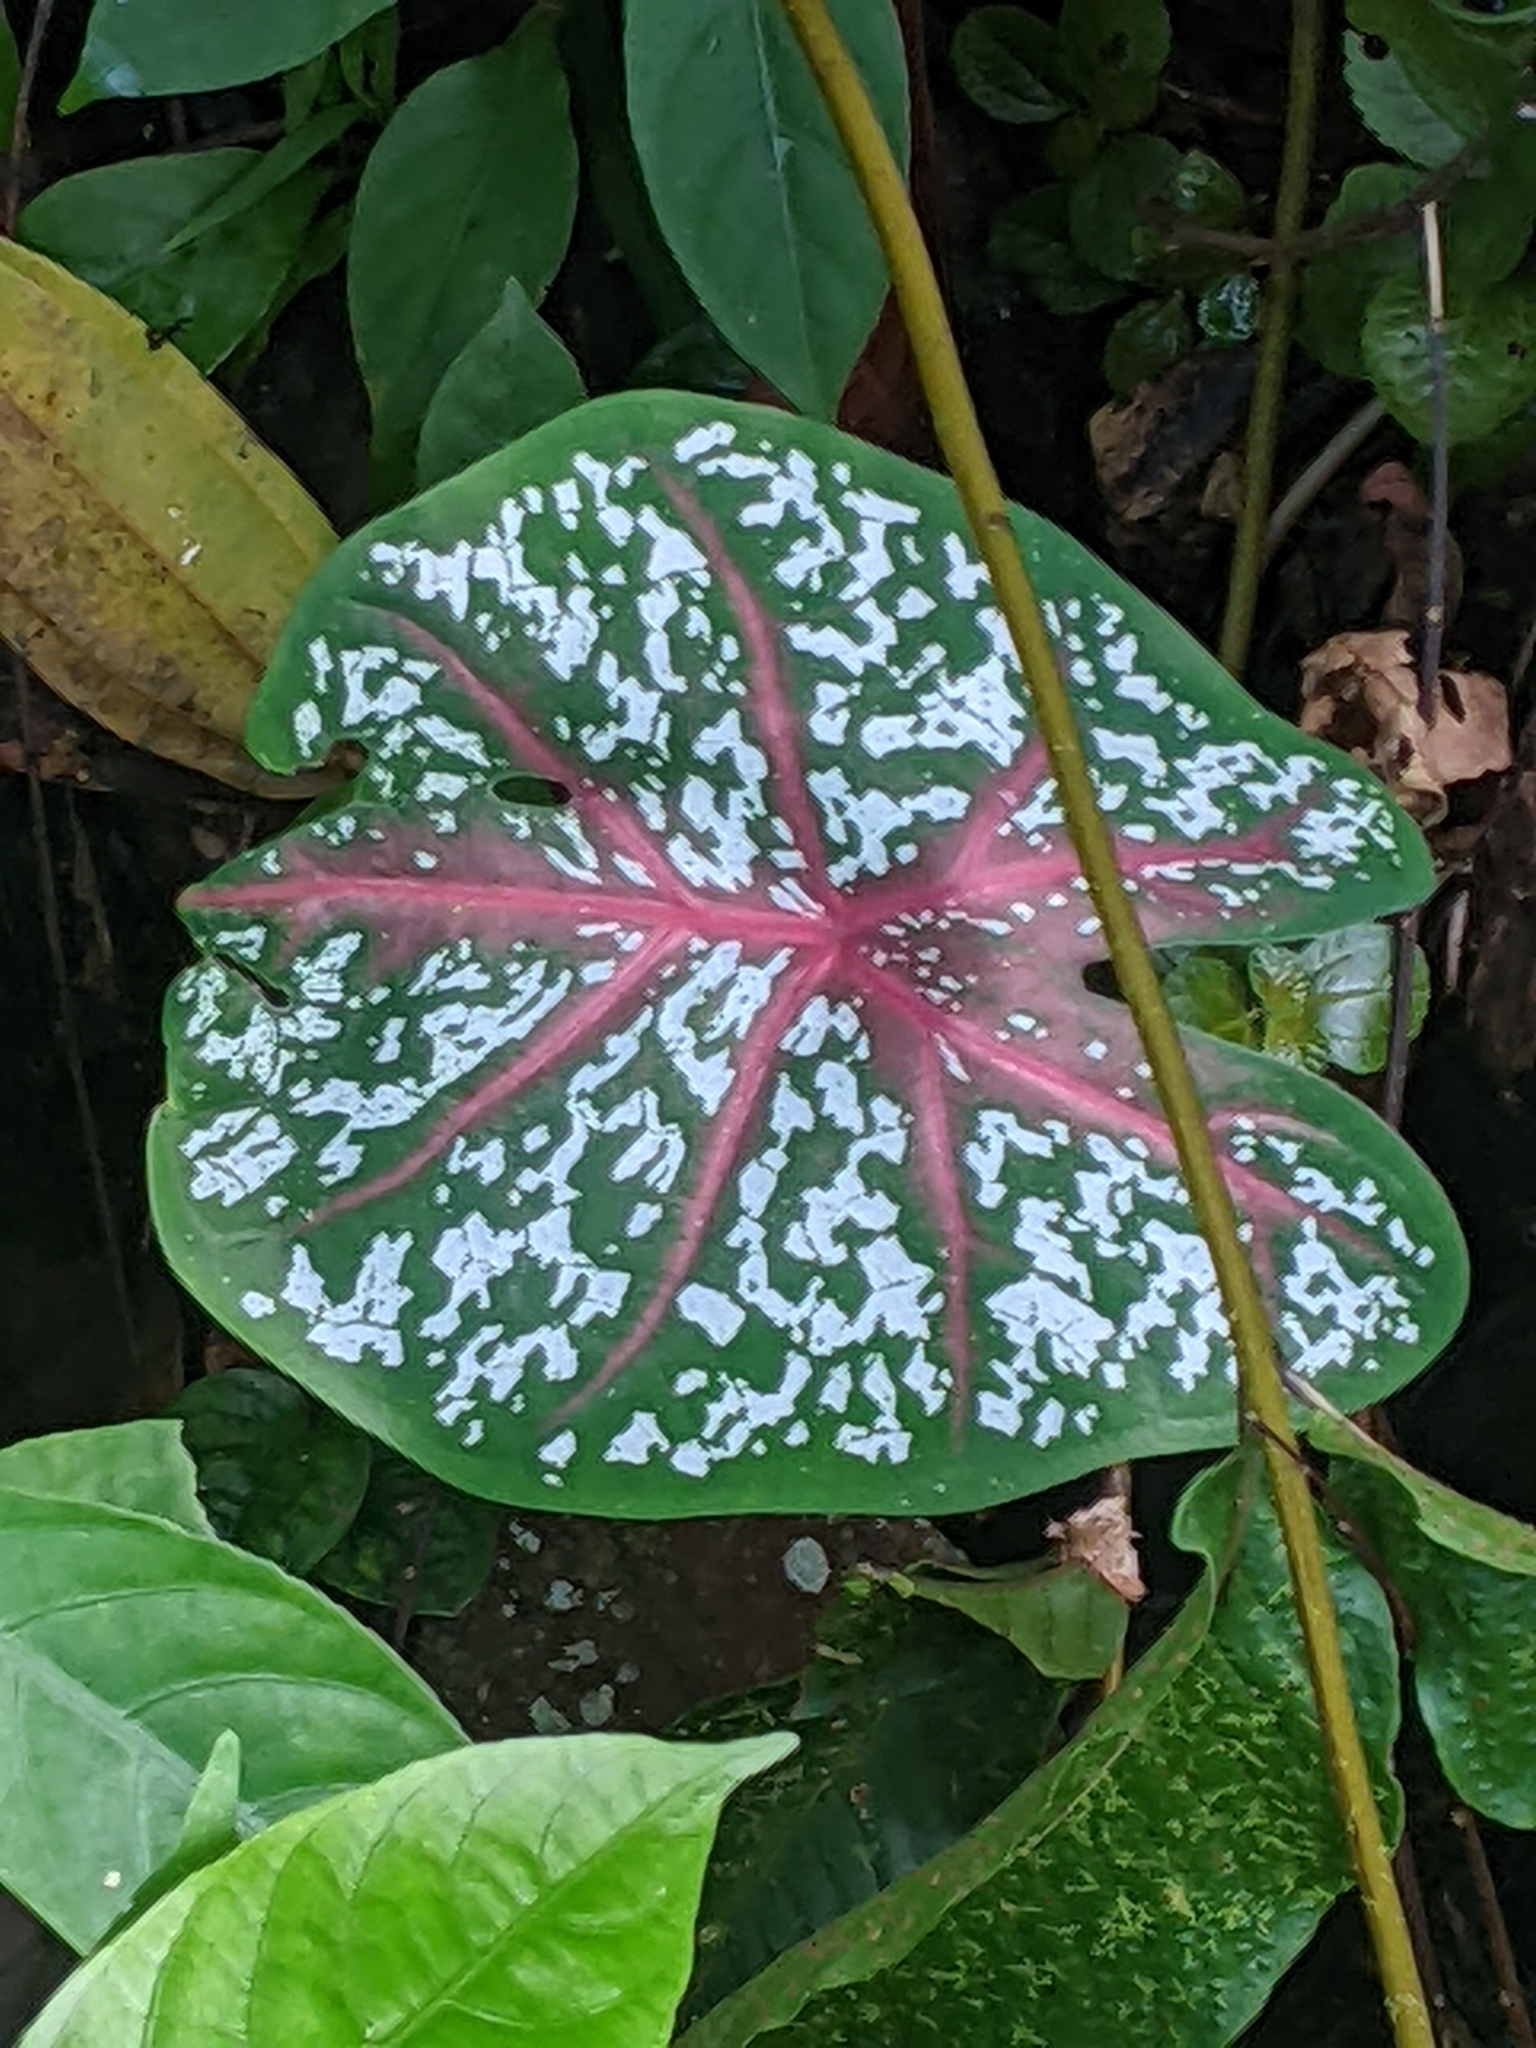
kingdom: Plantae
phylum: Tracheophyta
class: Liliopsida
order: Alismatales
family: Araceae
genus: Caladium
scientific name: Caladium bicolor
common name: Artist's pallet
